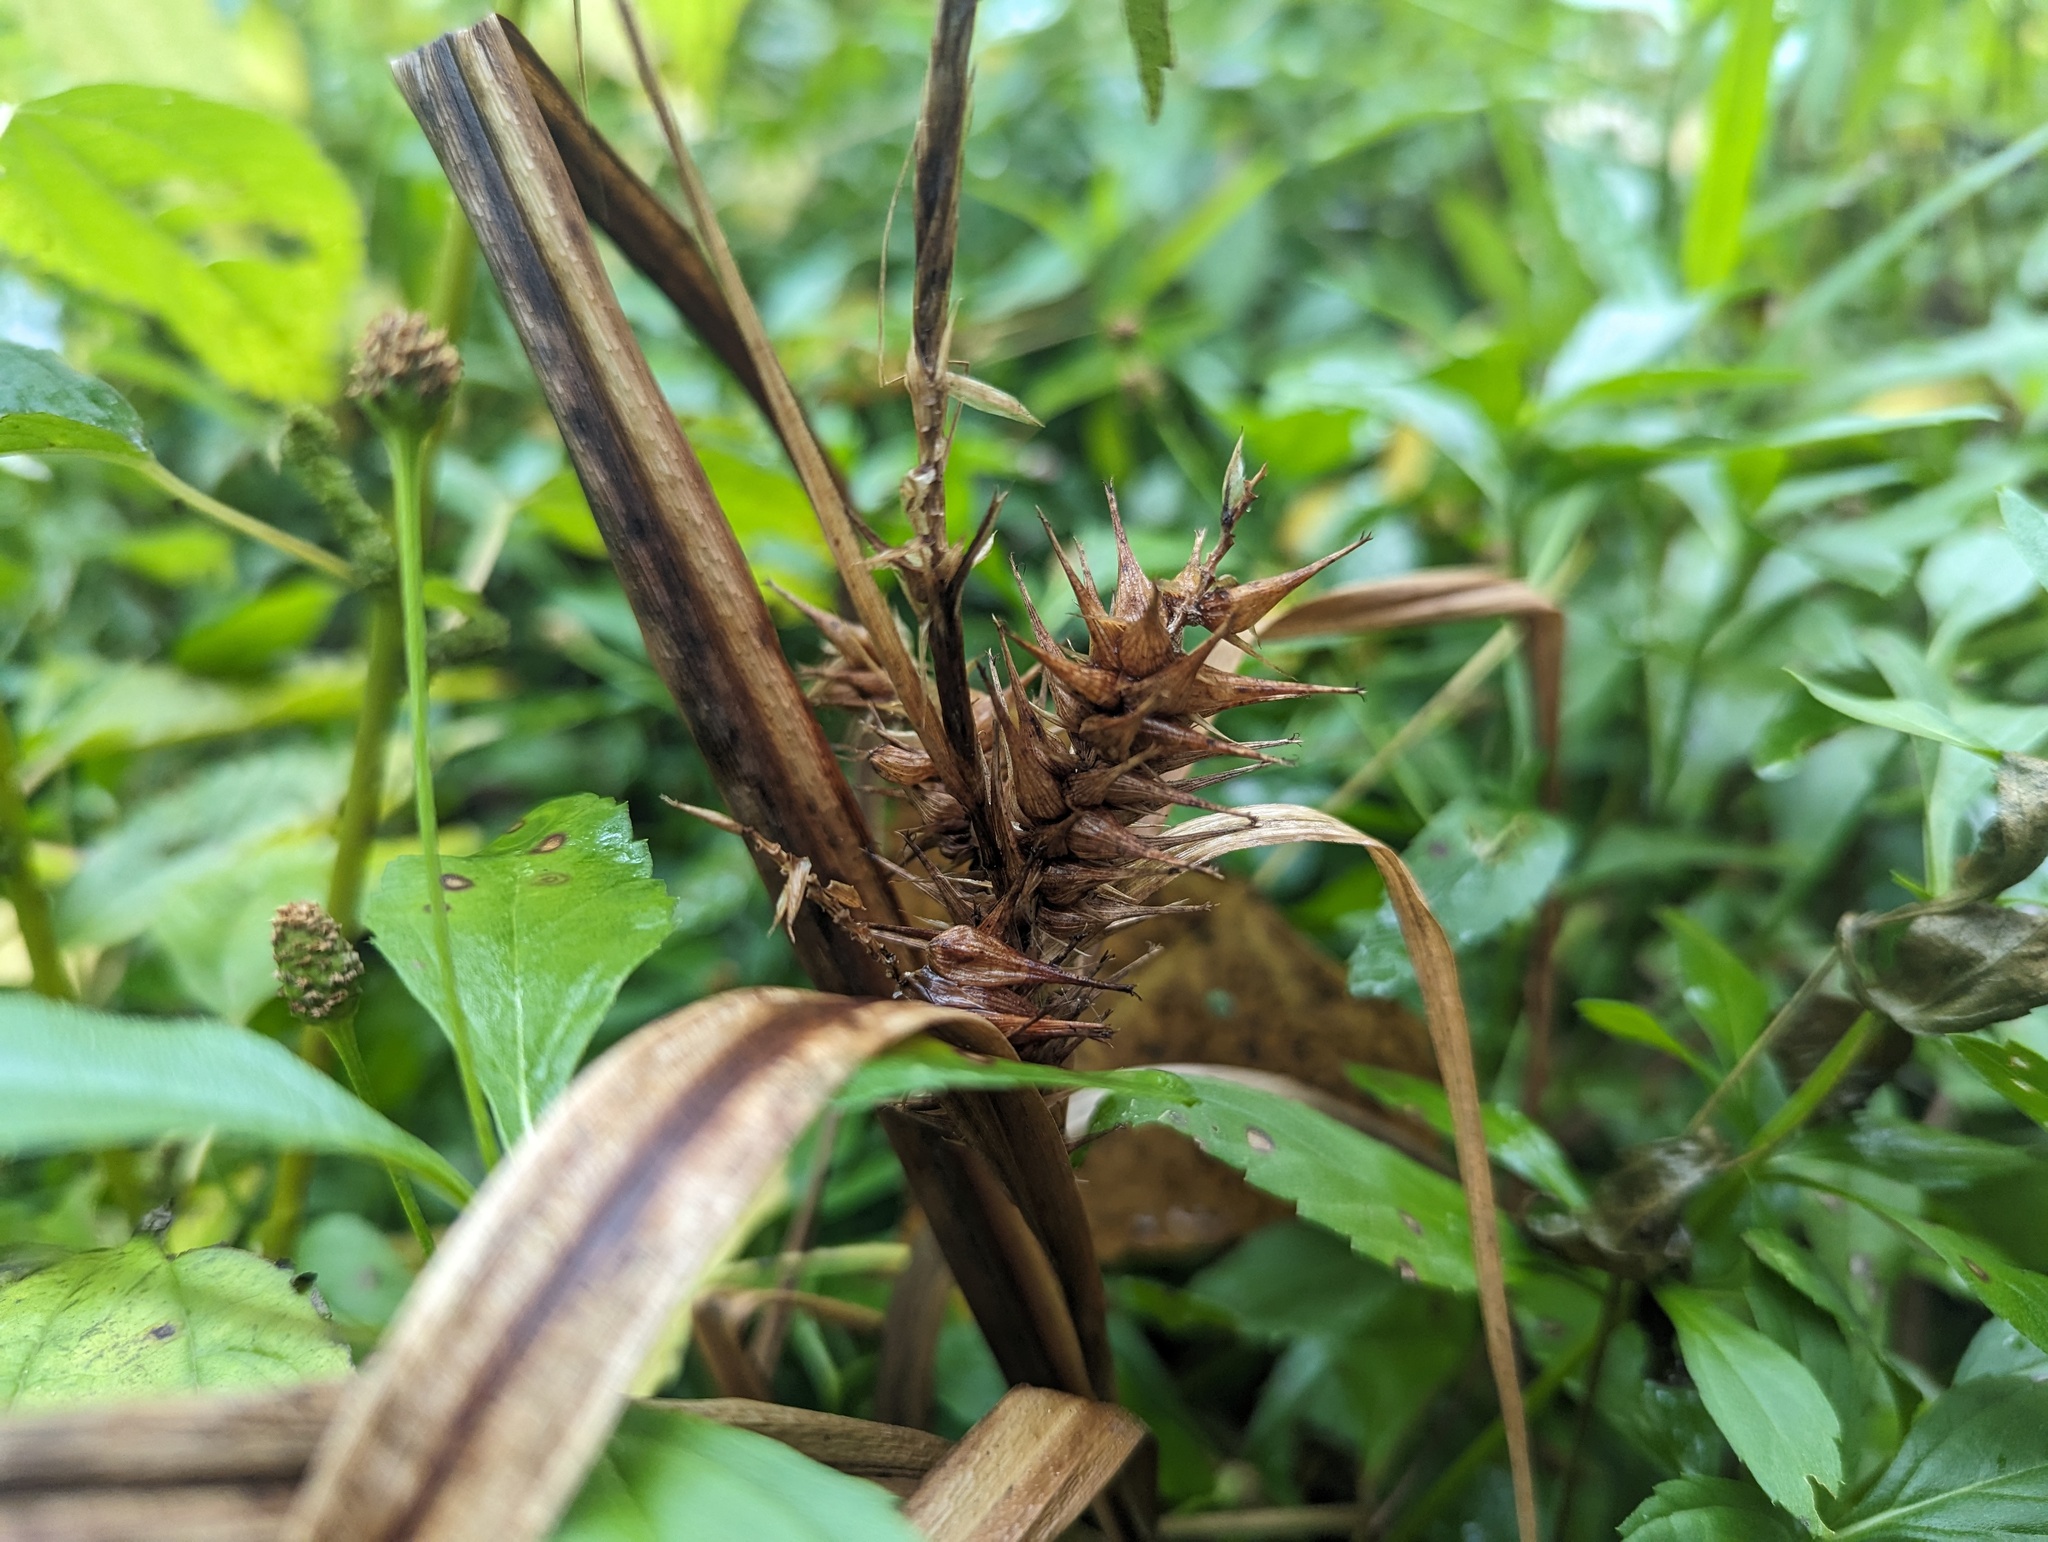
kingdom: Plantae
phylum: Tracheophyta
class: Liliopsida
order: Poales
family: Cyperaceae
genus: Carex
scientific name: Carex lupuliformis
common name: False hop sedge
